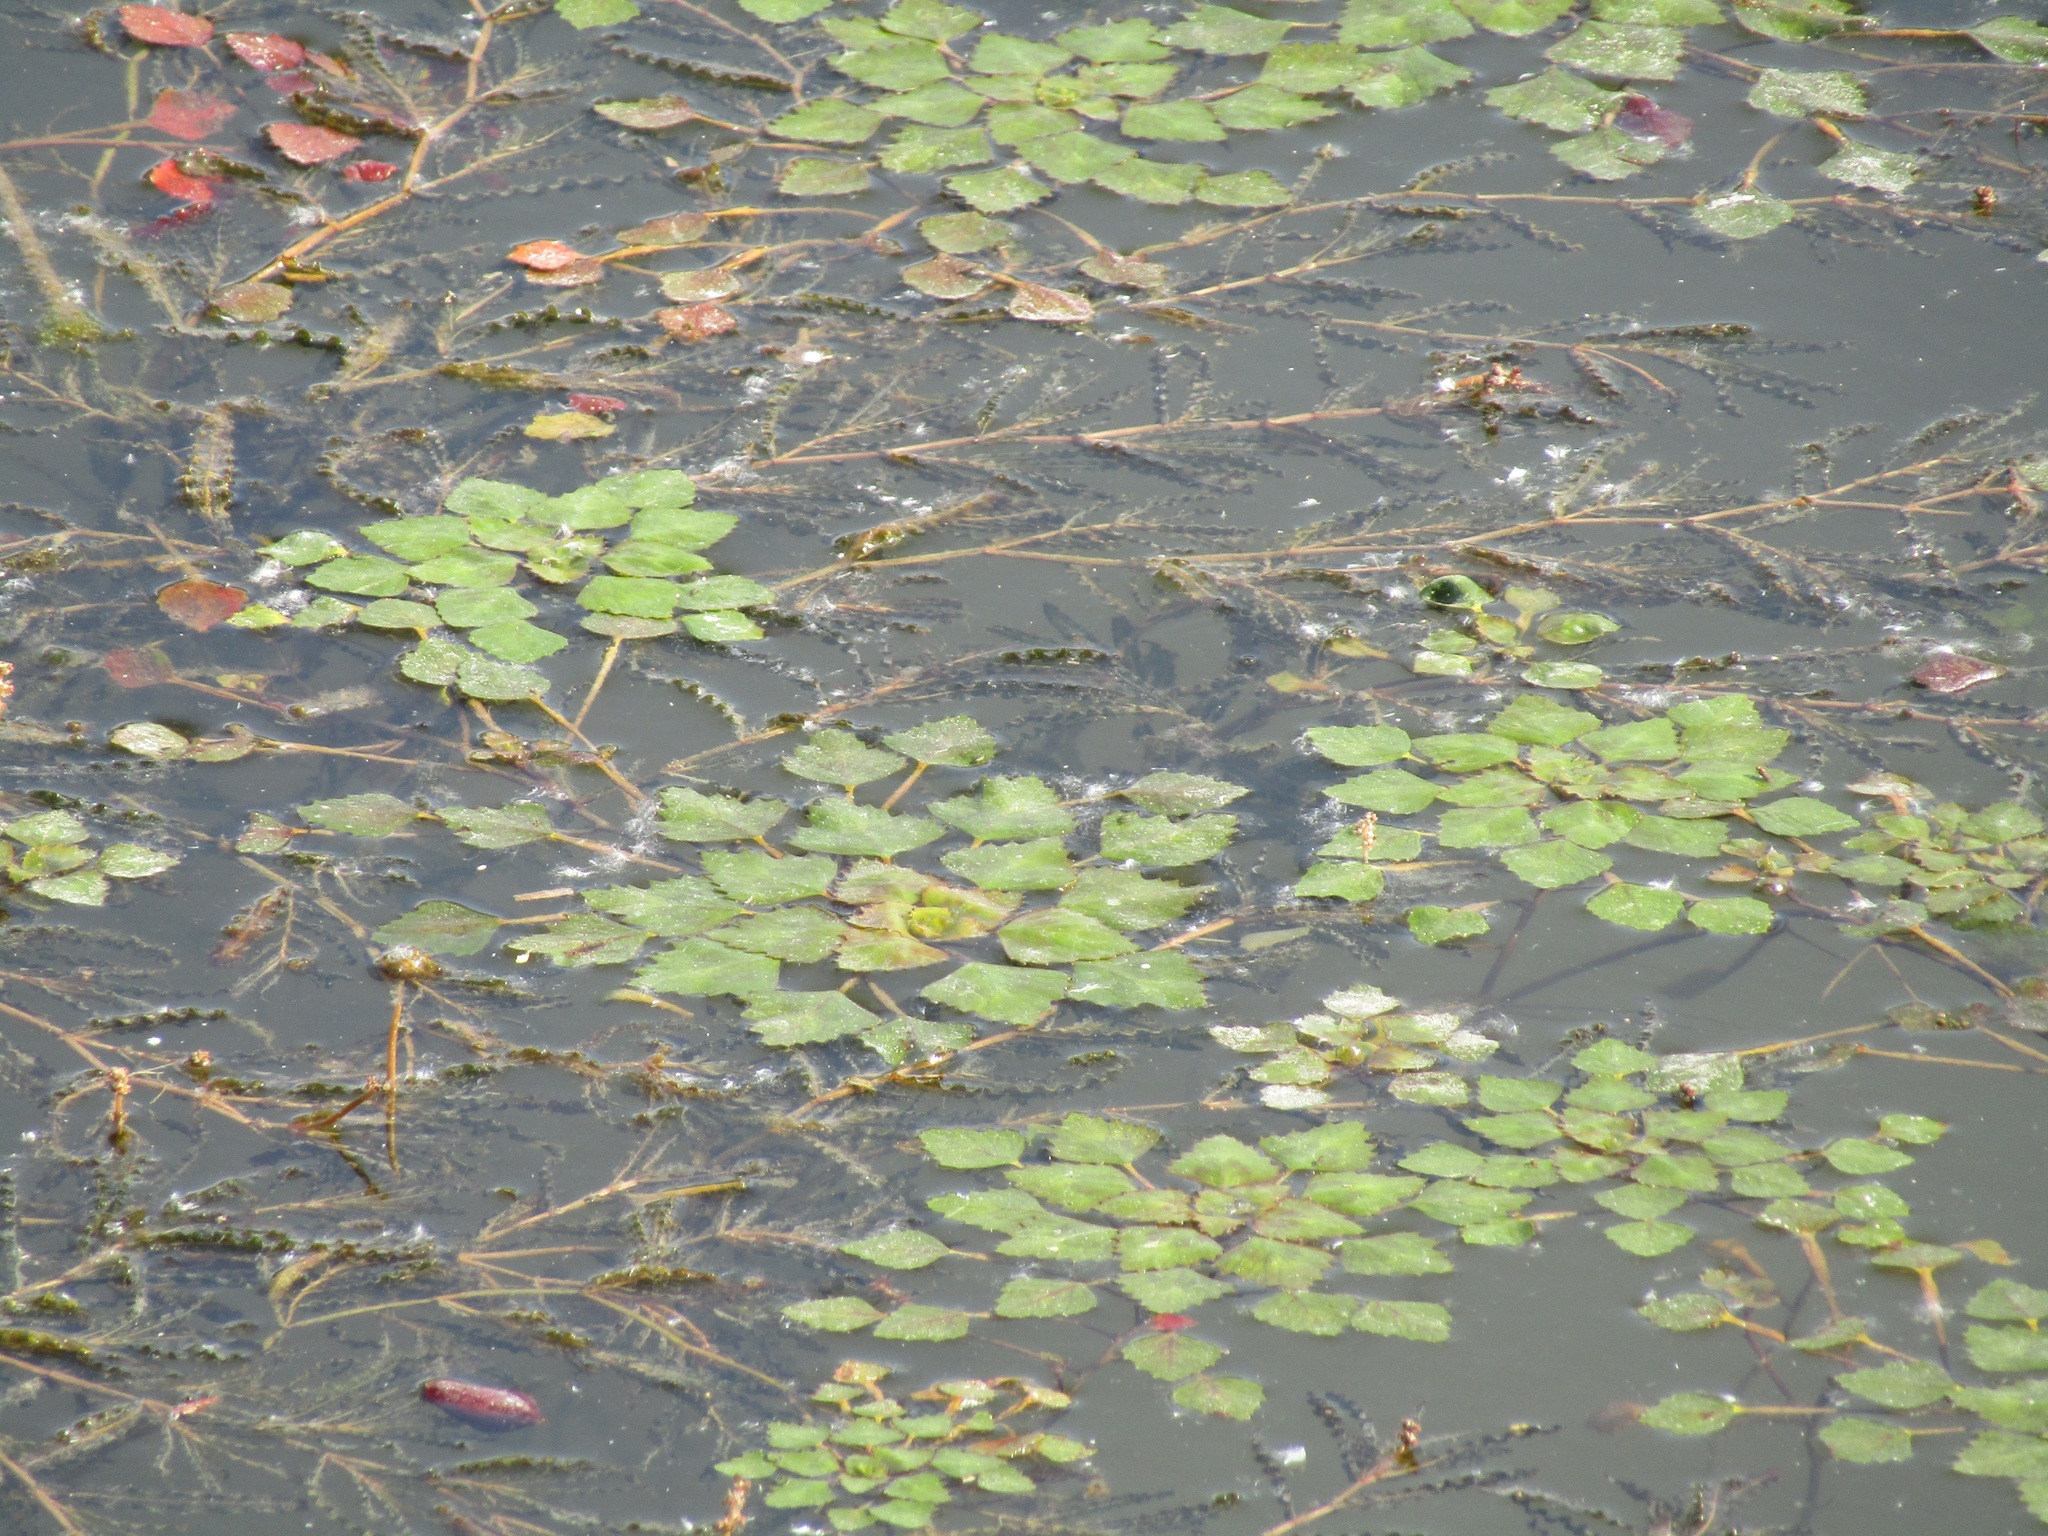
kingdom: Plantae
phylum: Tracheophyta
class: Magnoliopsida
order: Myrtales
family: Lythraceae
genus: Trapa
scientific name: Trapa natans
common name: Water chestnut
